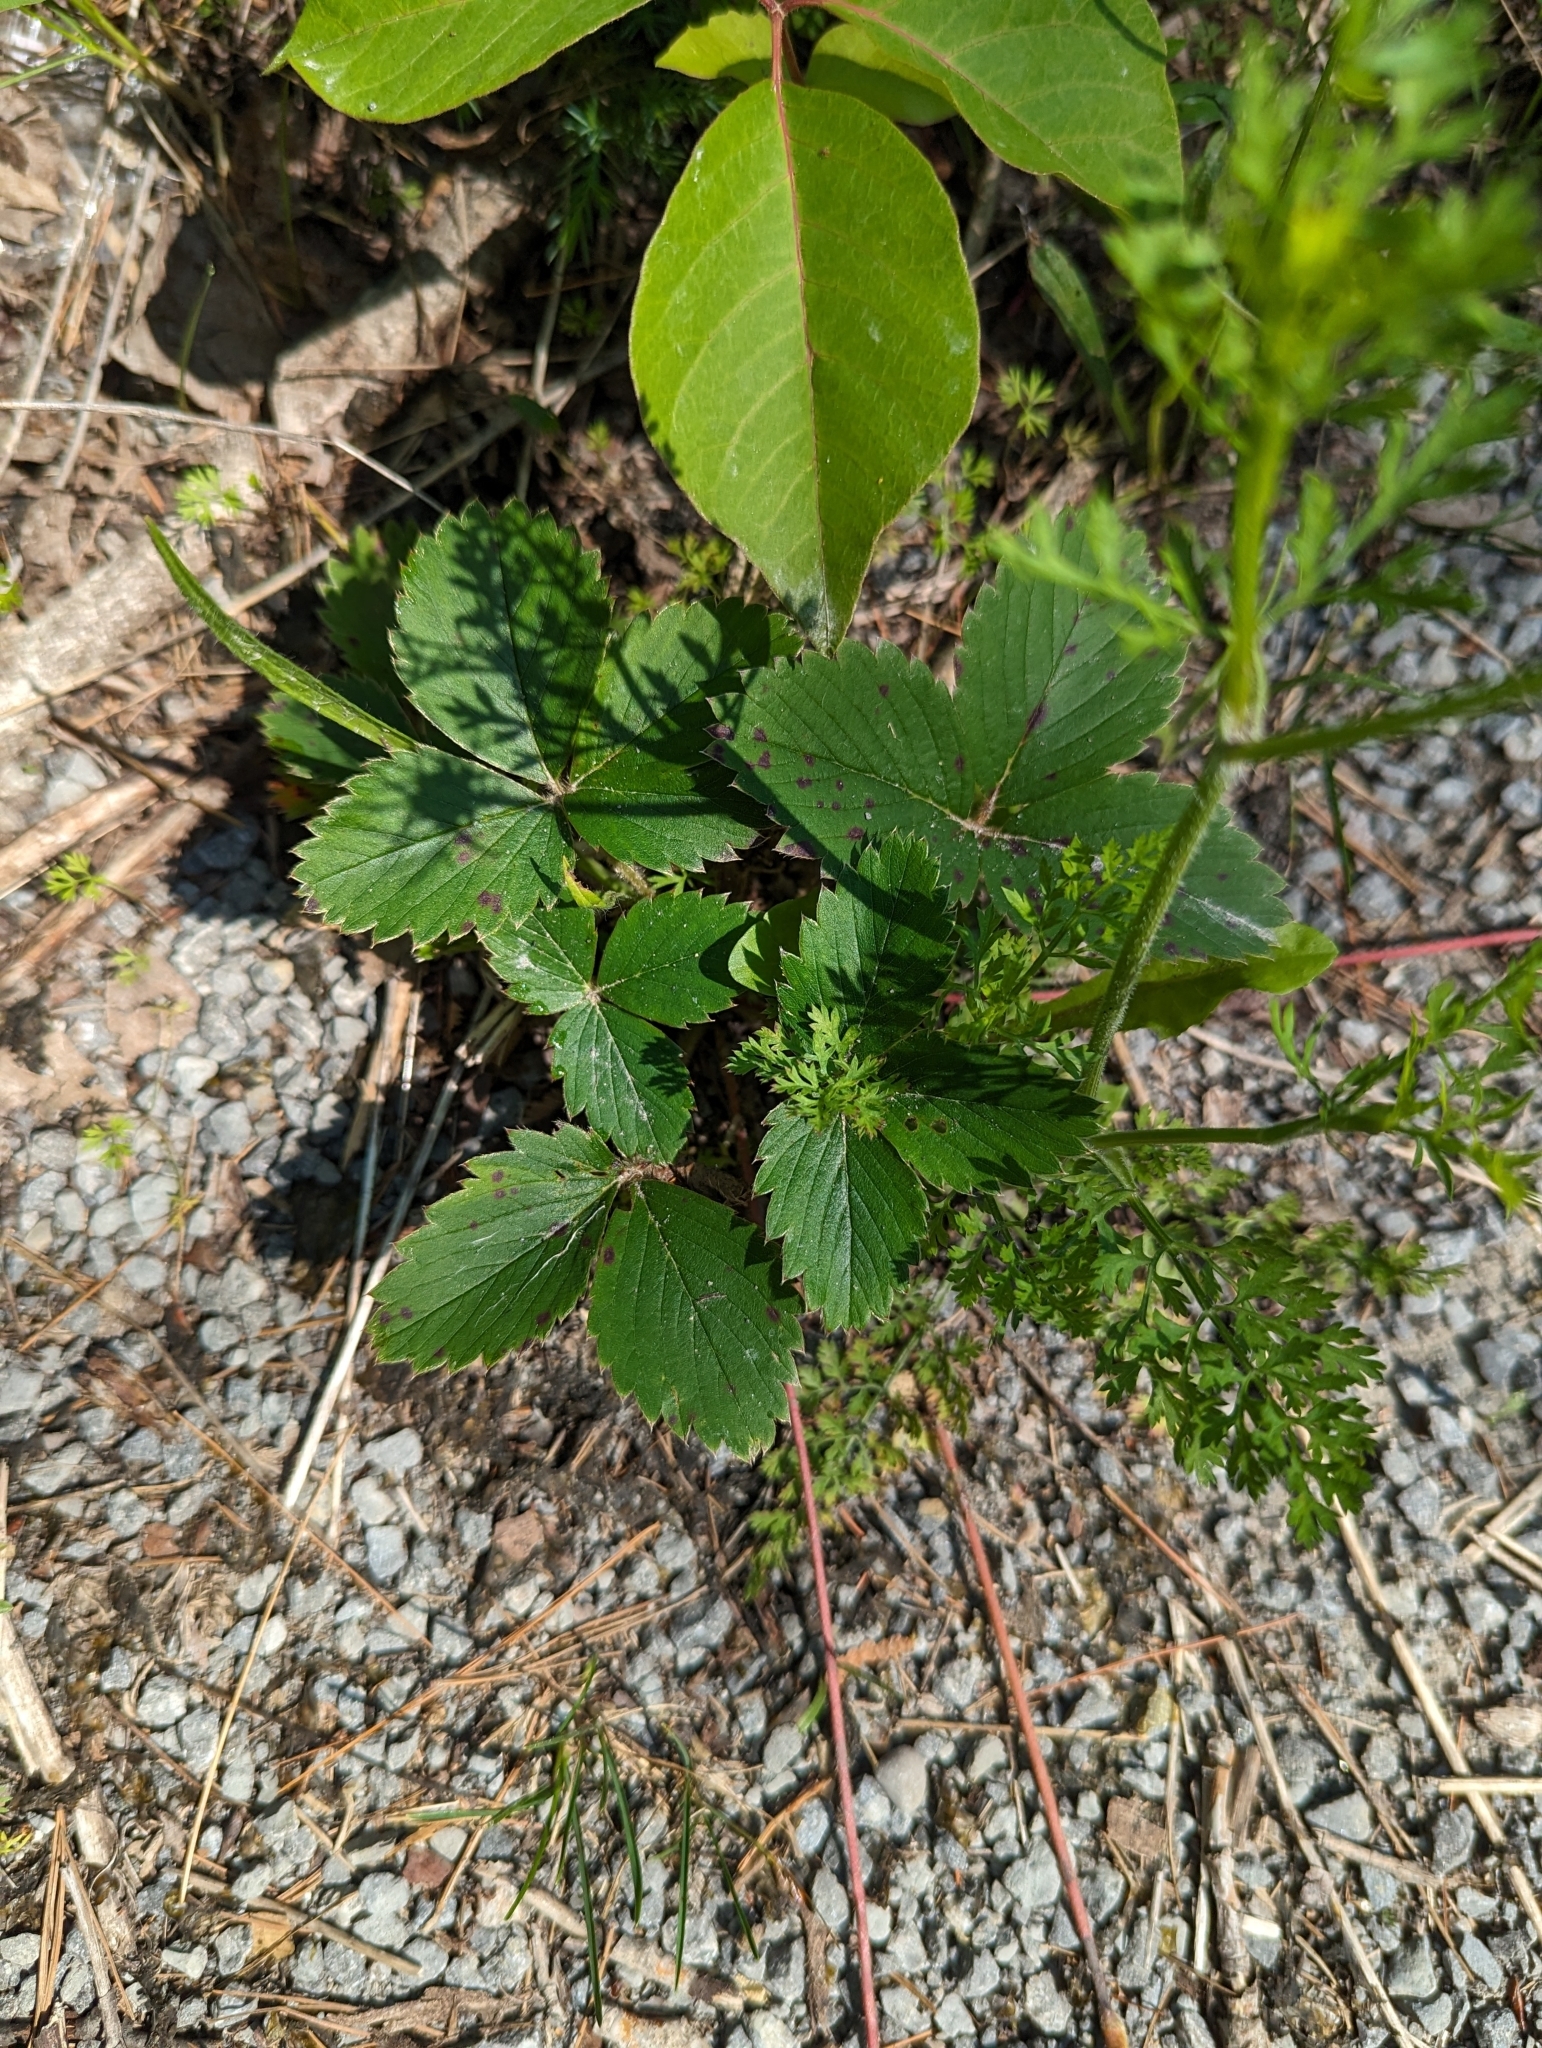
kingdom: Plantae
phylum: Tracheophyta
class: Magnoliopsida
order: Rosales
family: Rosaceae
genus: Fragaria
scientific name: Fragaria virginiana
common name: Thickleaved wild strawberry
